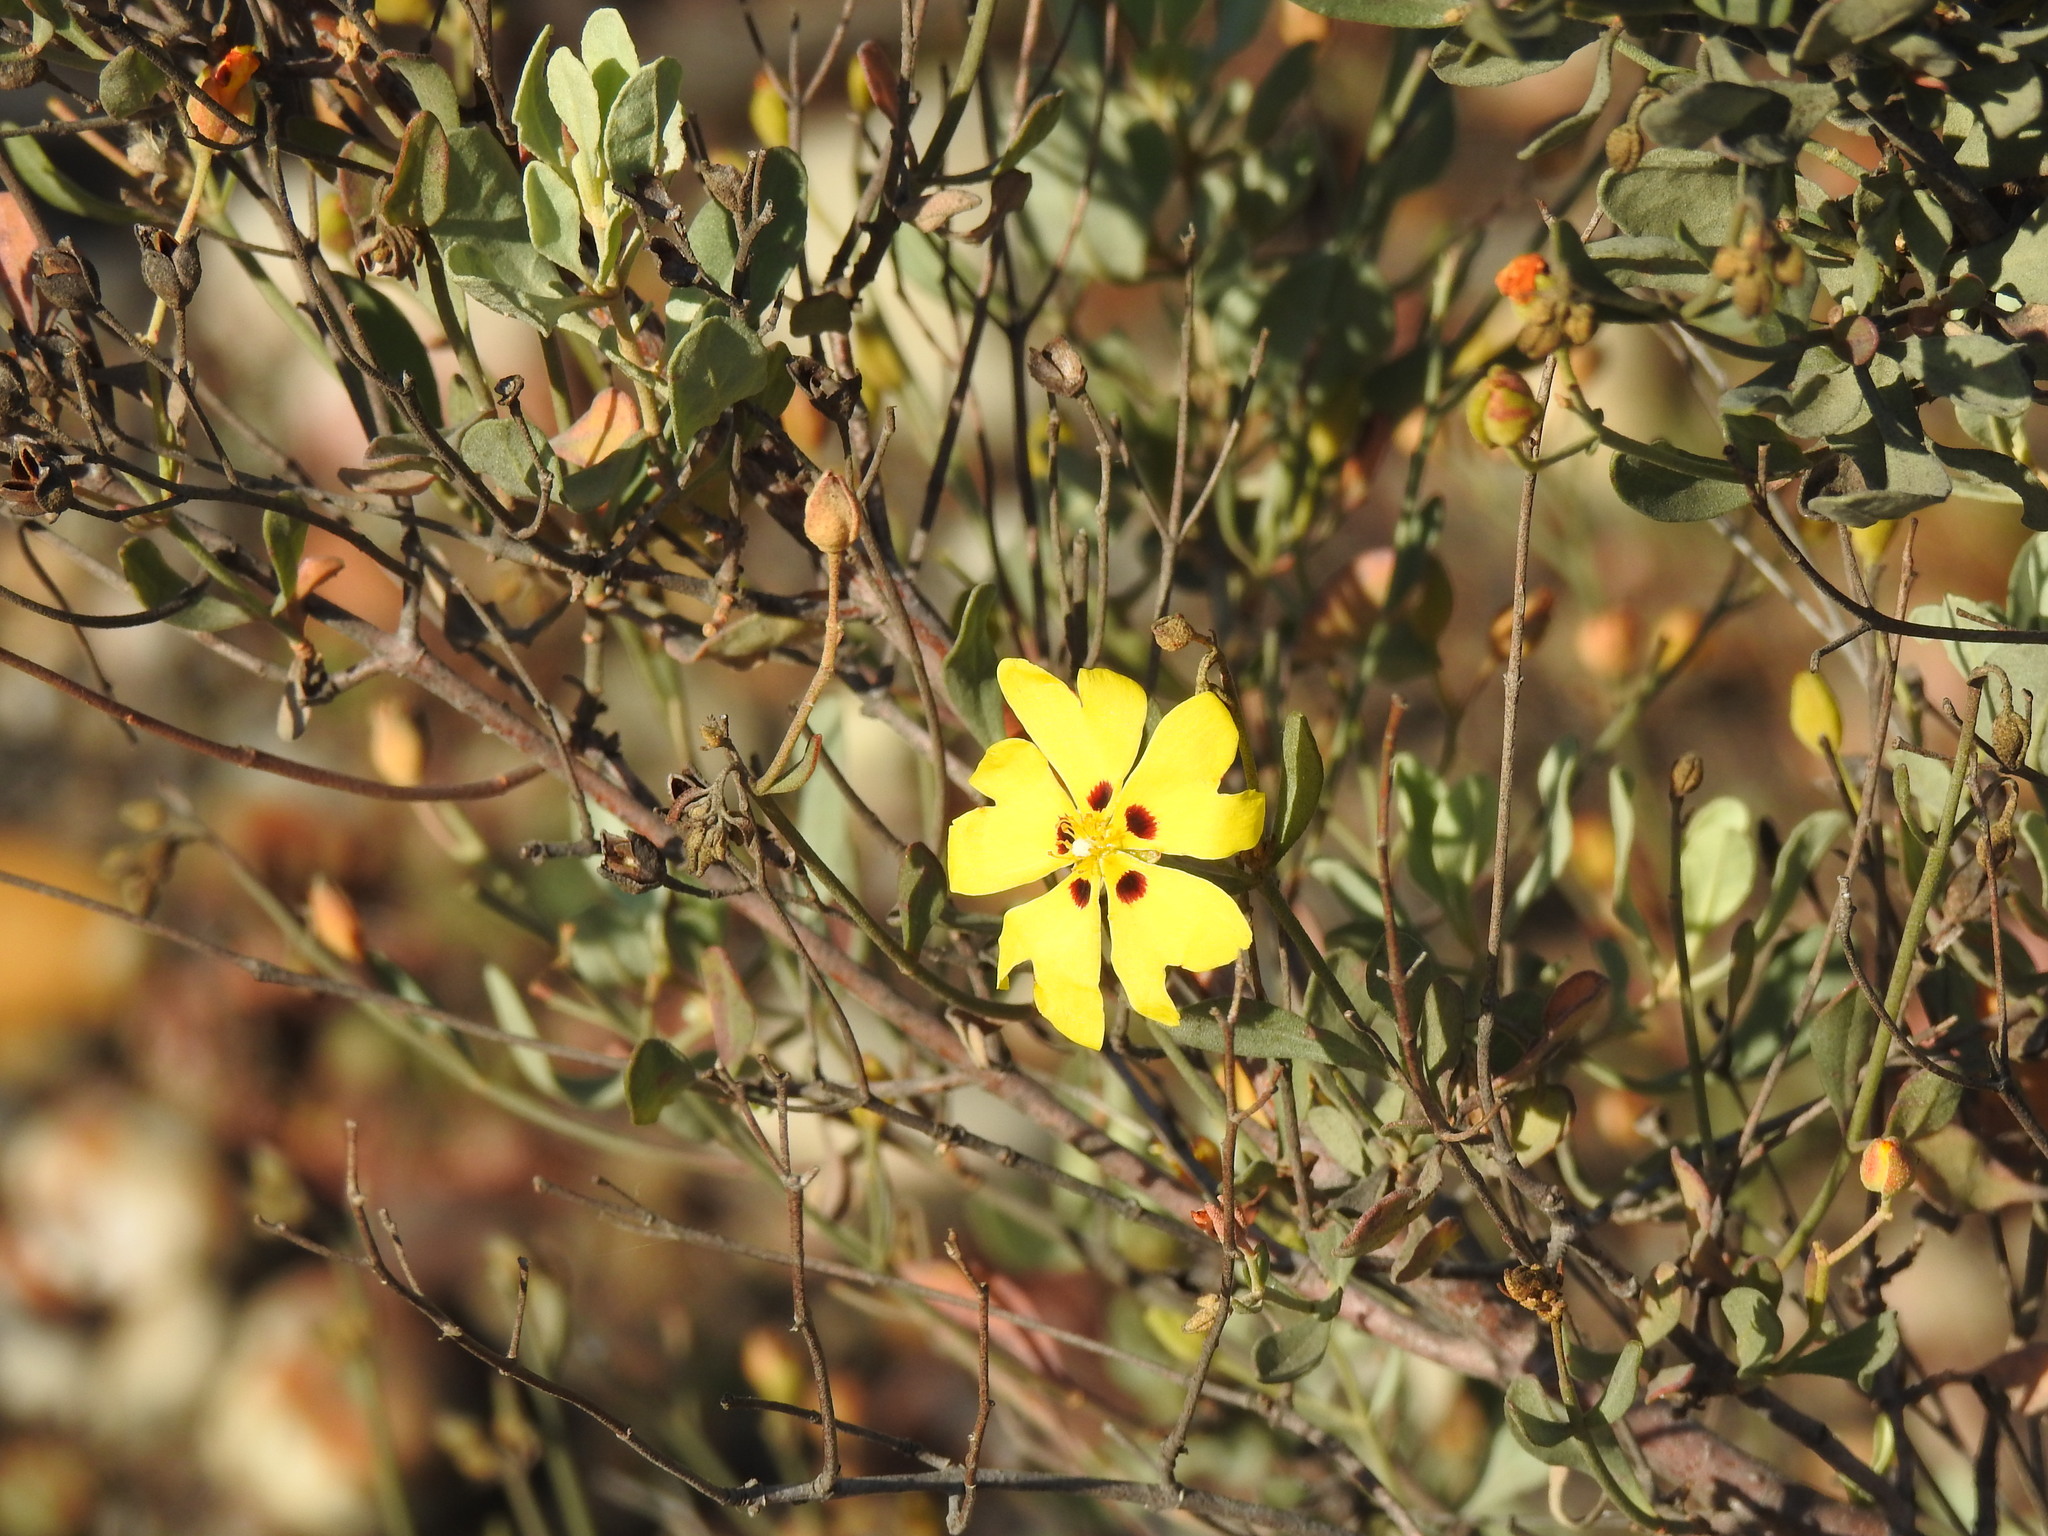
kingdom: Plantae
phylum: Tracheophyta
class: Magnoliopsida
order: Malvales
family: Cistaceae
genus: Halimium
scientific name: Halimium halimifolium
